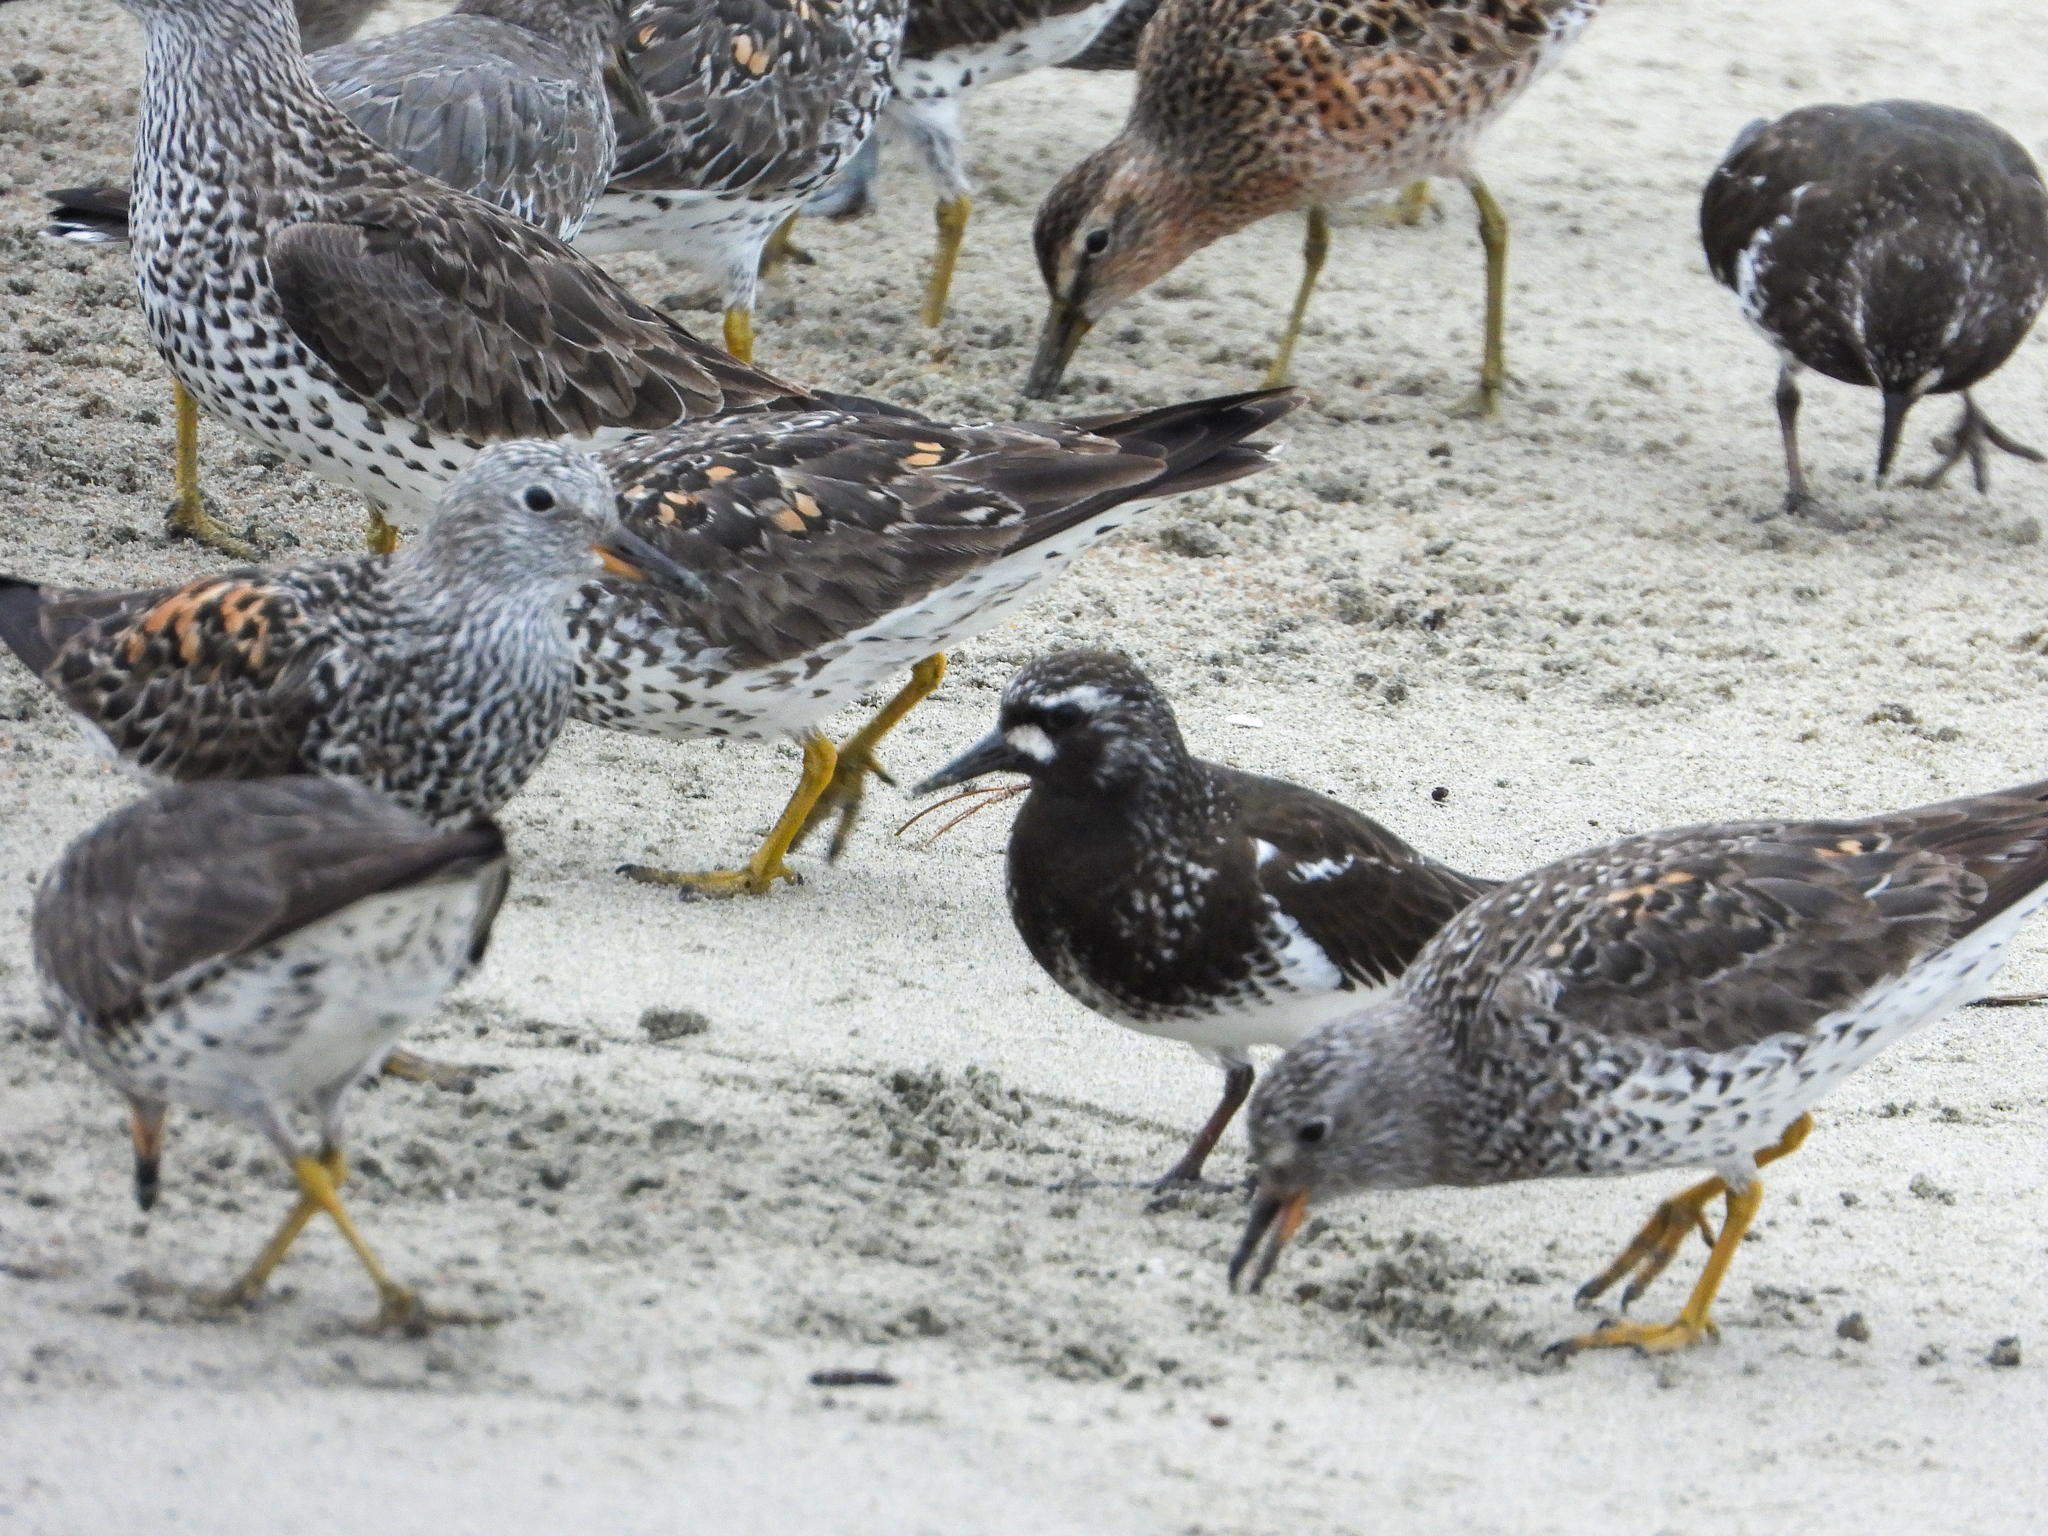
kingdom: Animalia
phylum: Chordata
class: Aves
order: Charadriiformes
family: Scolopacidae
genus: Arenaria
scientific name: Arenaria melanocephala
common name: Black turnstone
